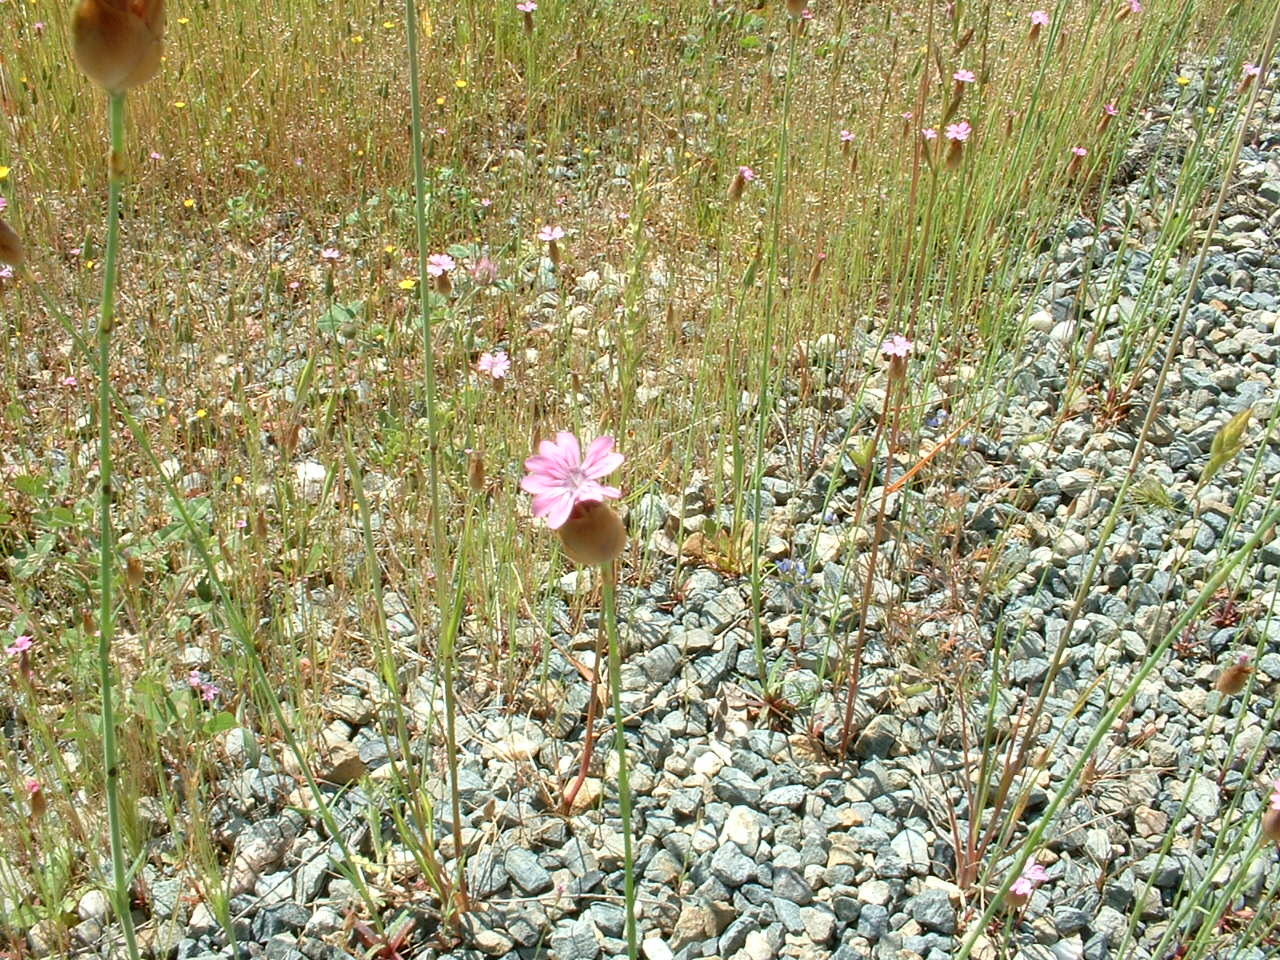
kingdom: Plantae
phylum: Tracheophyta
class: Magnoliopsida
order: Caryophyllales
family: Caryophyllaceae
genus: Petrorhagia
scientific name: Petrorhagia dubia
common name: Hairypink
